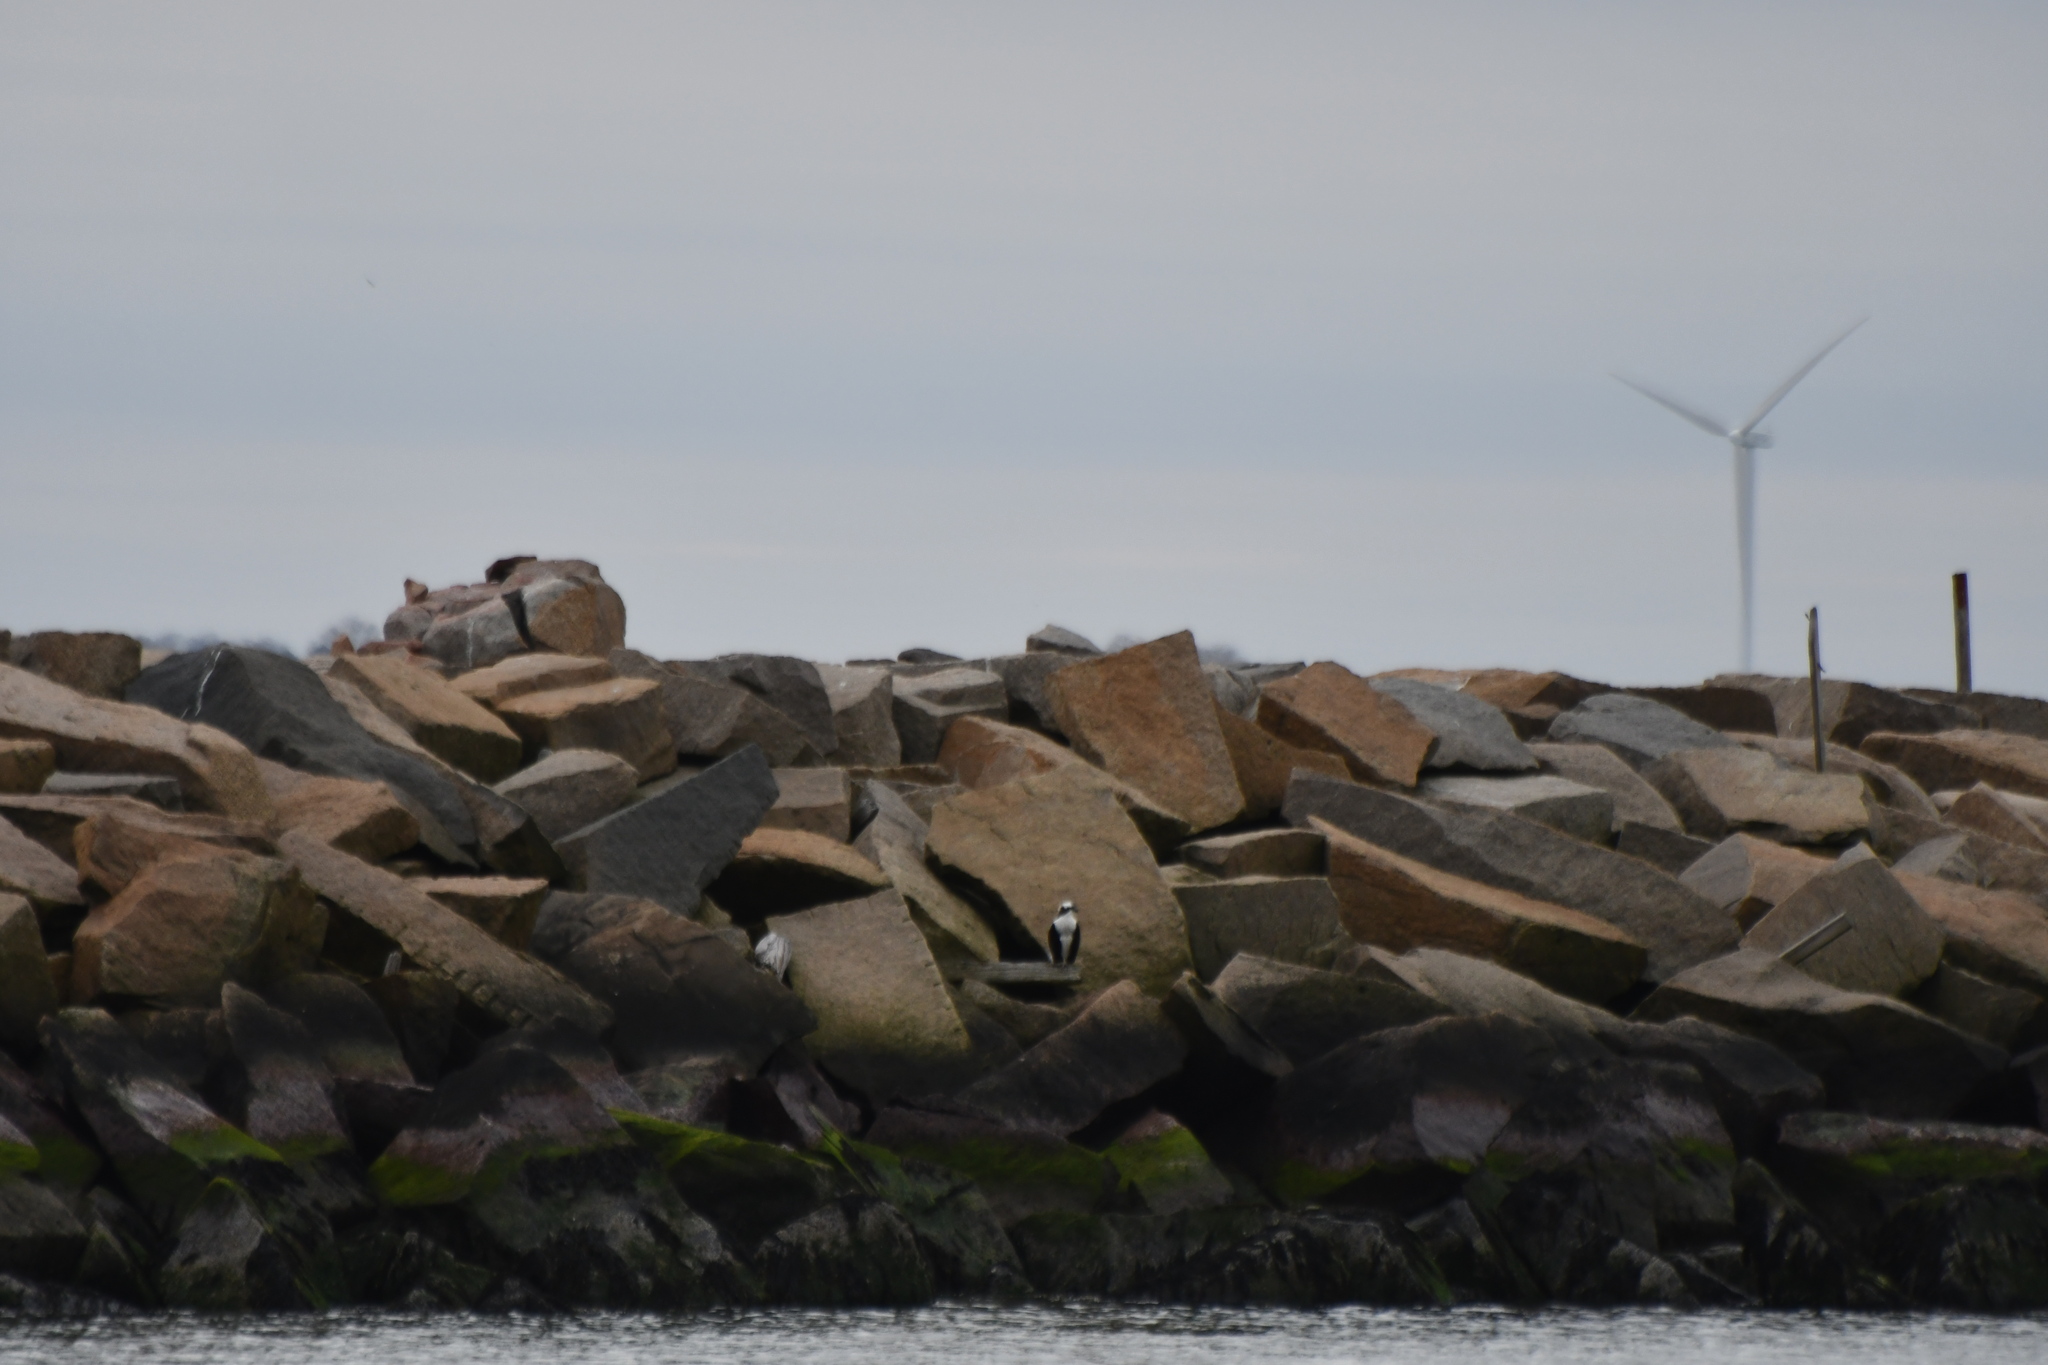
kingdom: Animalia
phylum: Chordata
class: Aves
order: Accipitriformes
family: Pandionidae
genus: Pandion
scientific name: Pandion haliaetus
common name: Osprey
